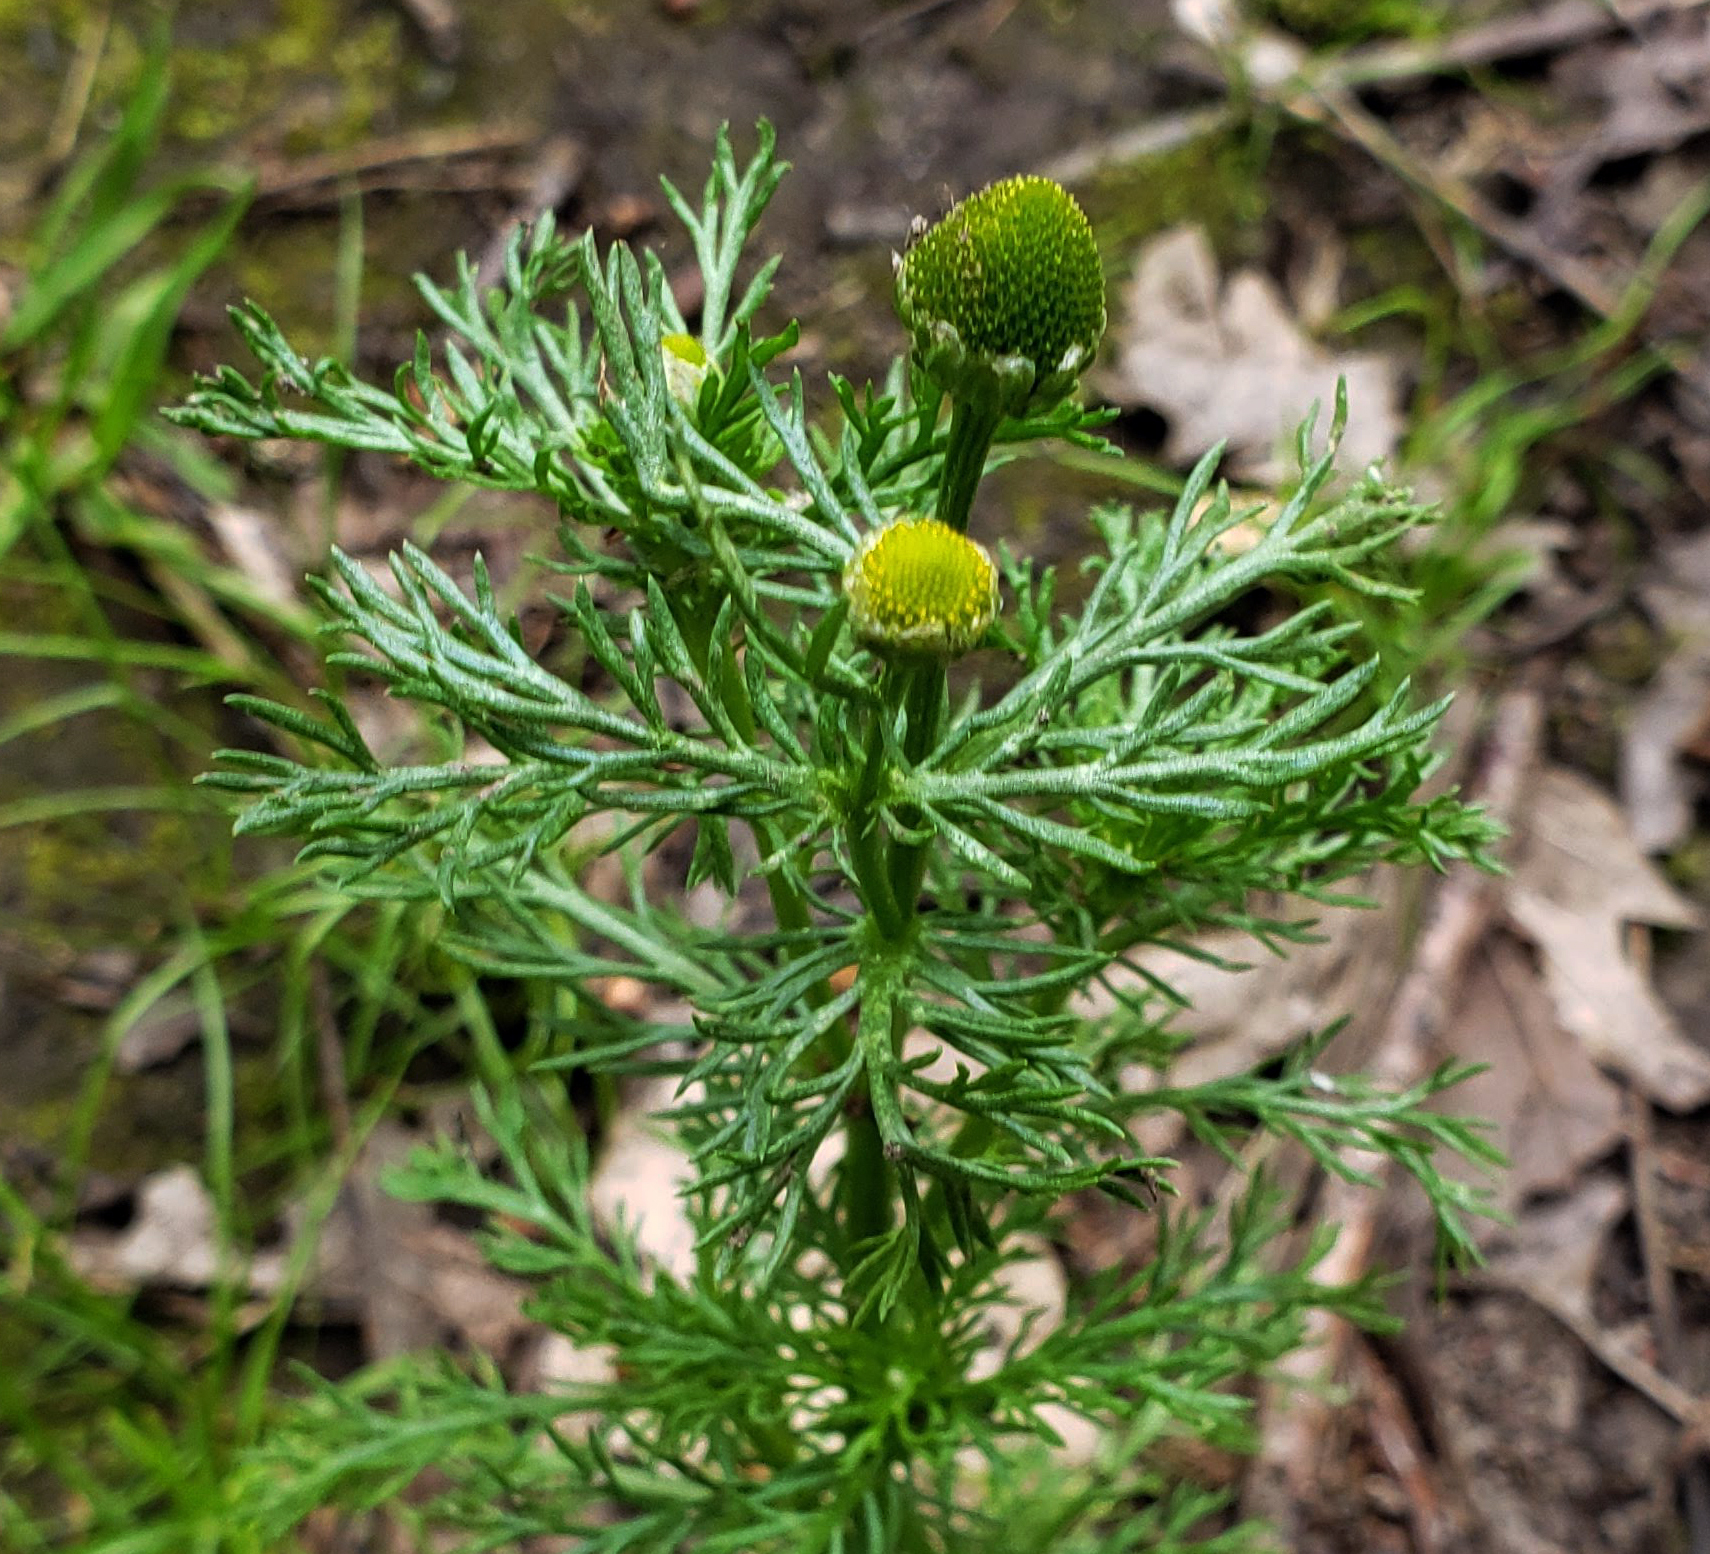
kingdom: Plantae
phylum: Tracheophyta
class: Magnoliopsida
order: Asterales
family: Asteraceae
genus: Matricaria
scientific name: Matricaria discoidea
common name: Disc mayweed
